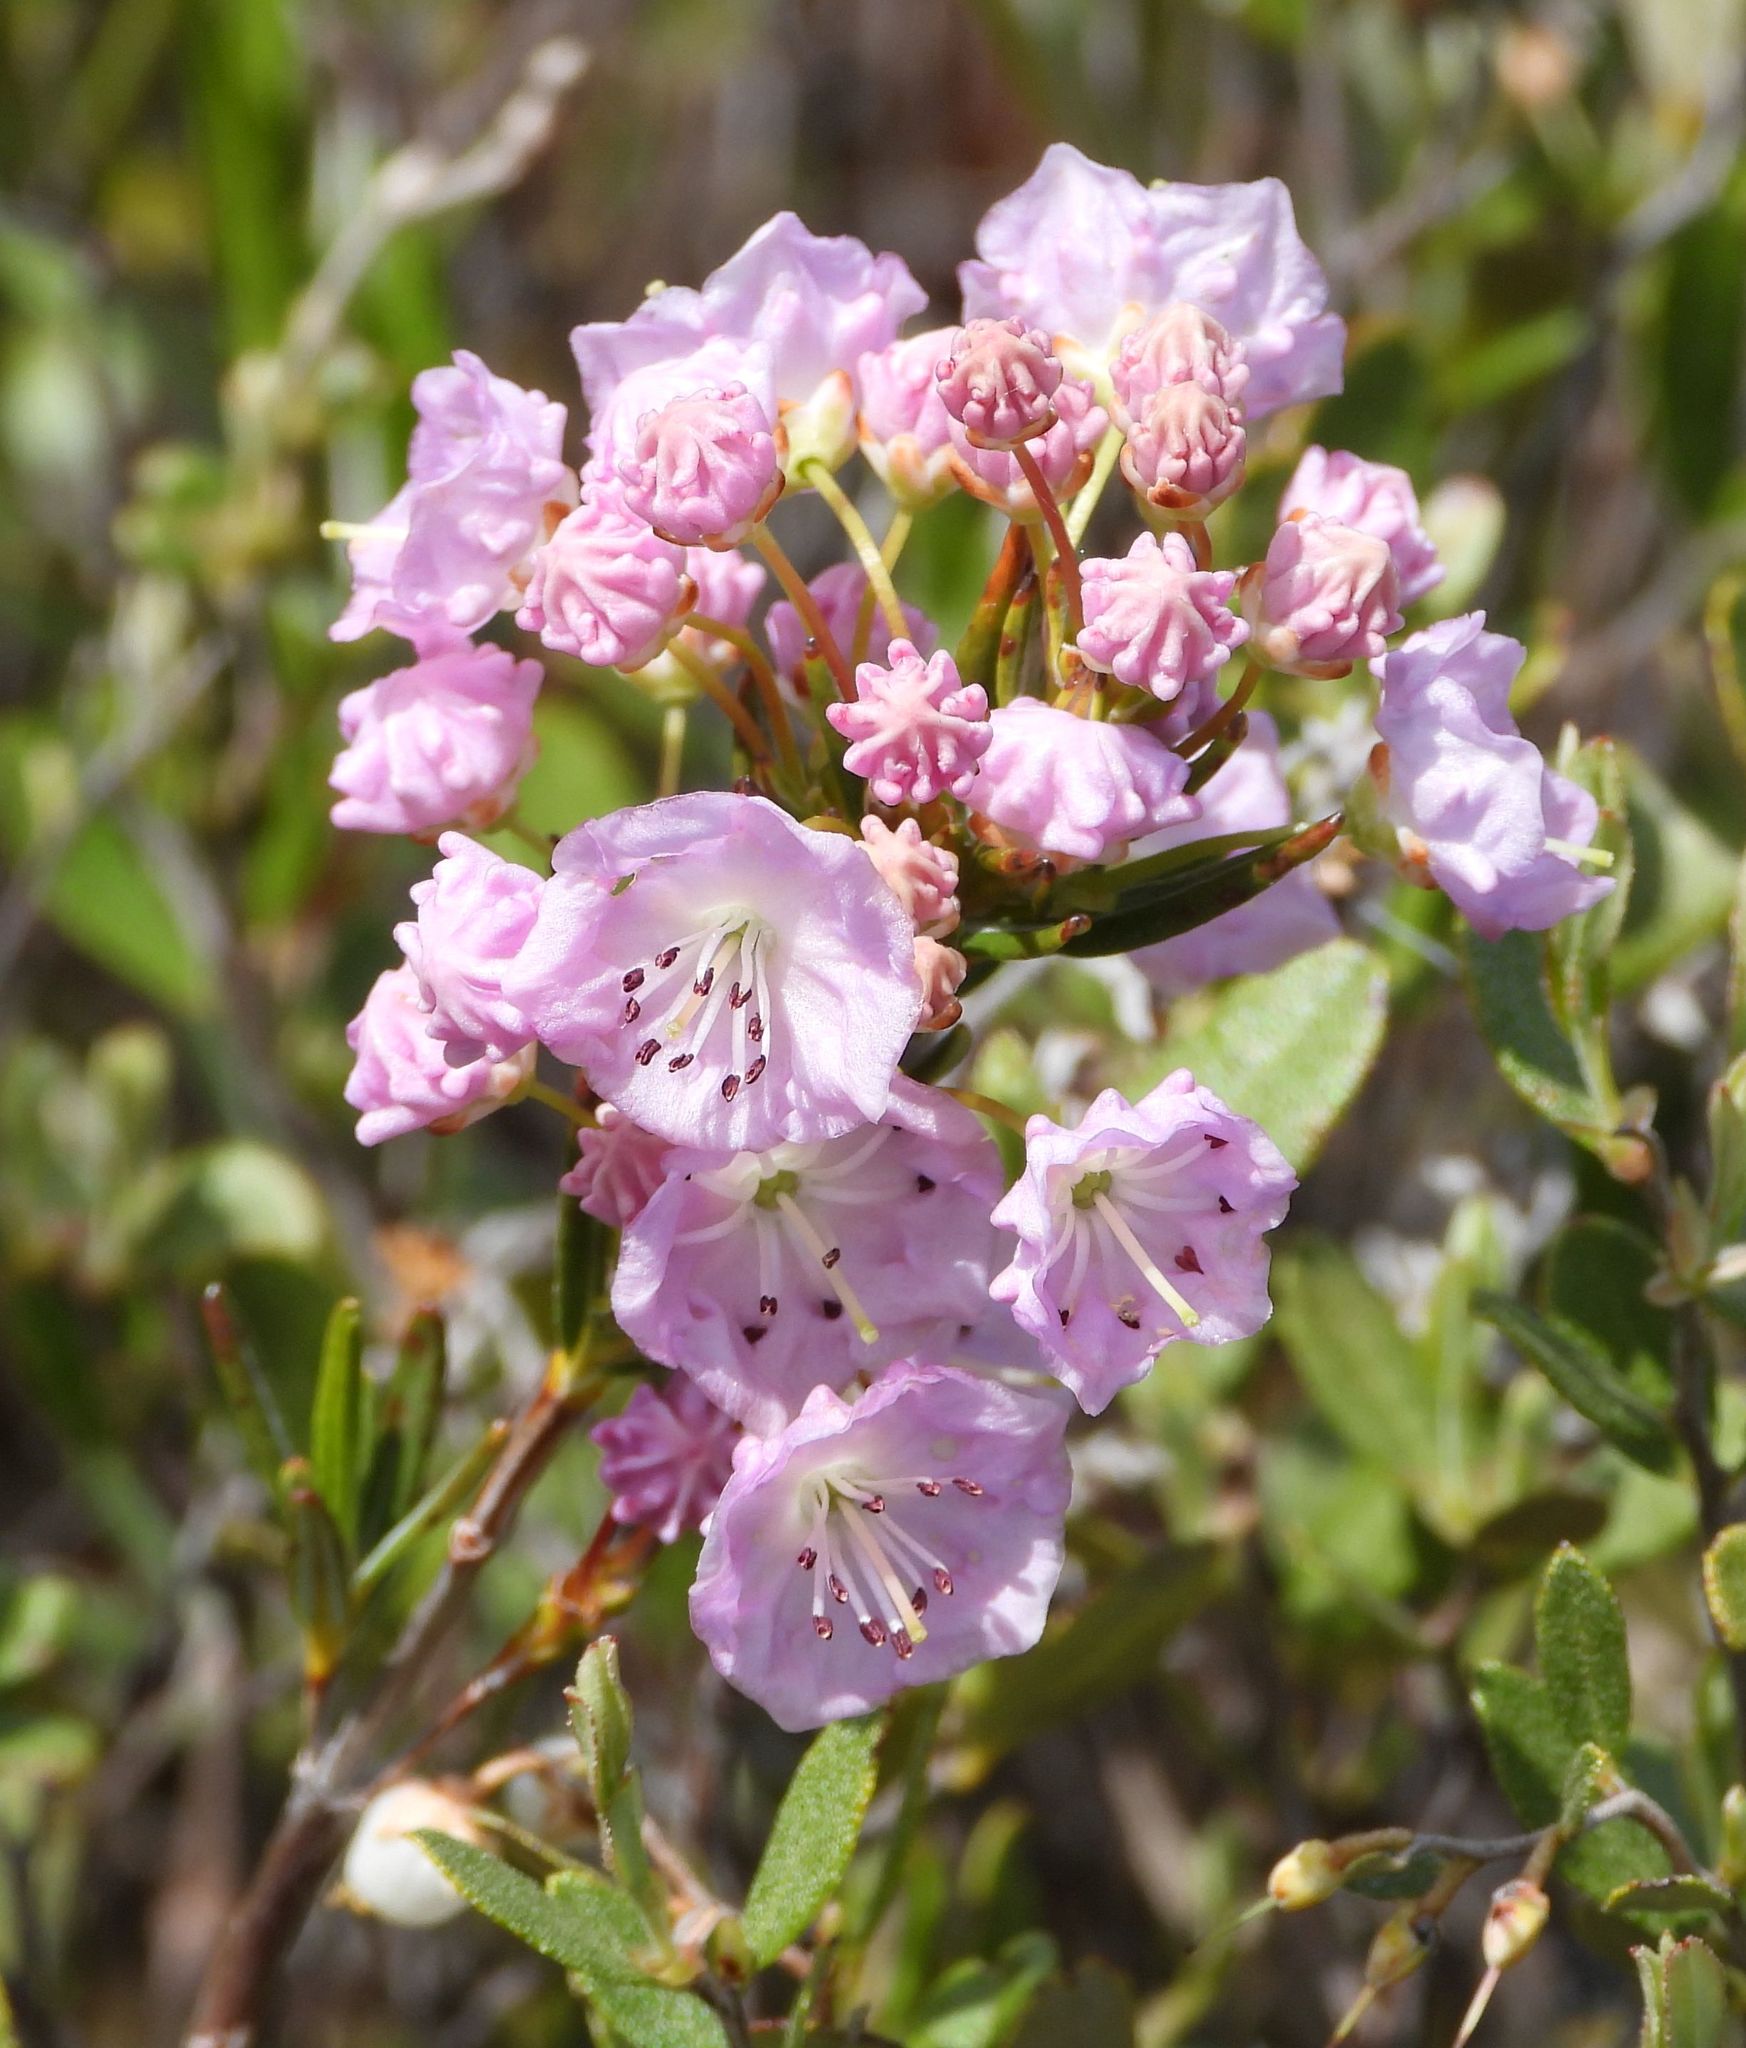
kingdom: Plantae
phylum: Tracheophyta
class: Magnoliopsida
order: Ericales
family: Ericaceae
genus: Kalmia
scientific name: Kalmia polifolia
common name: Bog-laurel
